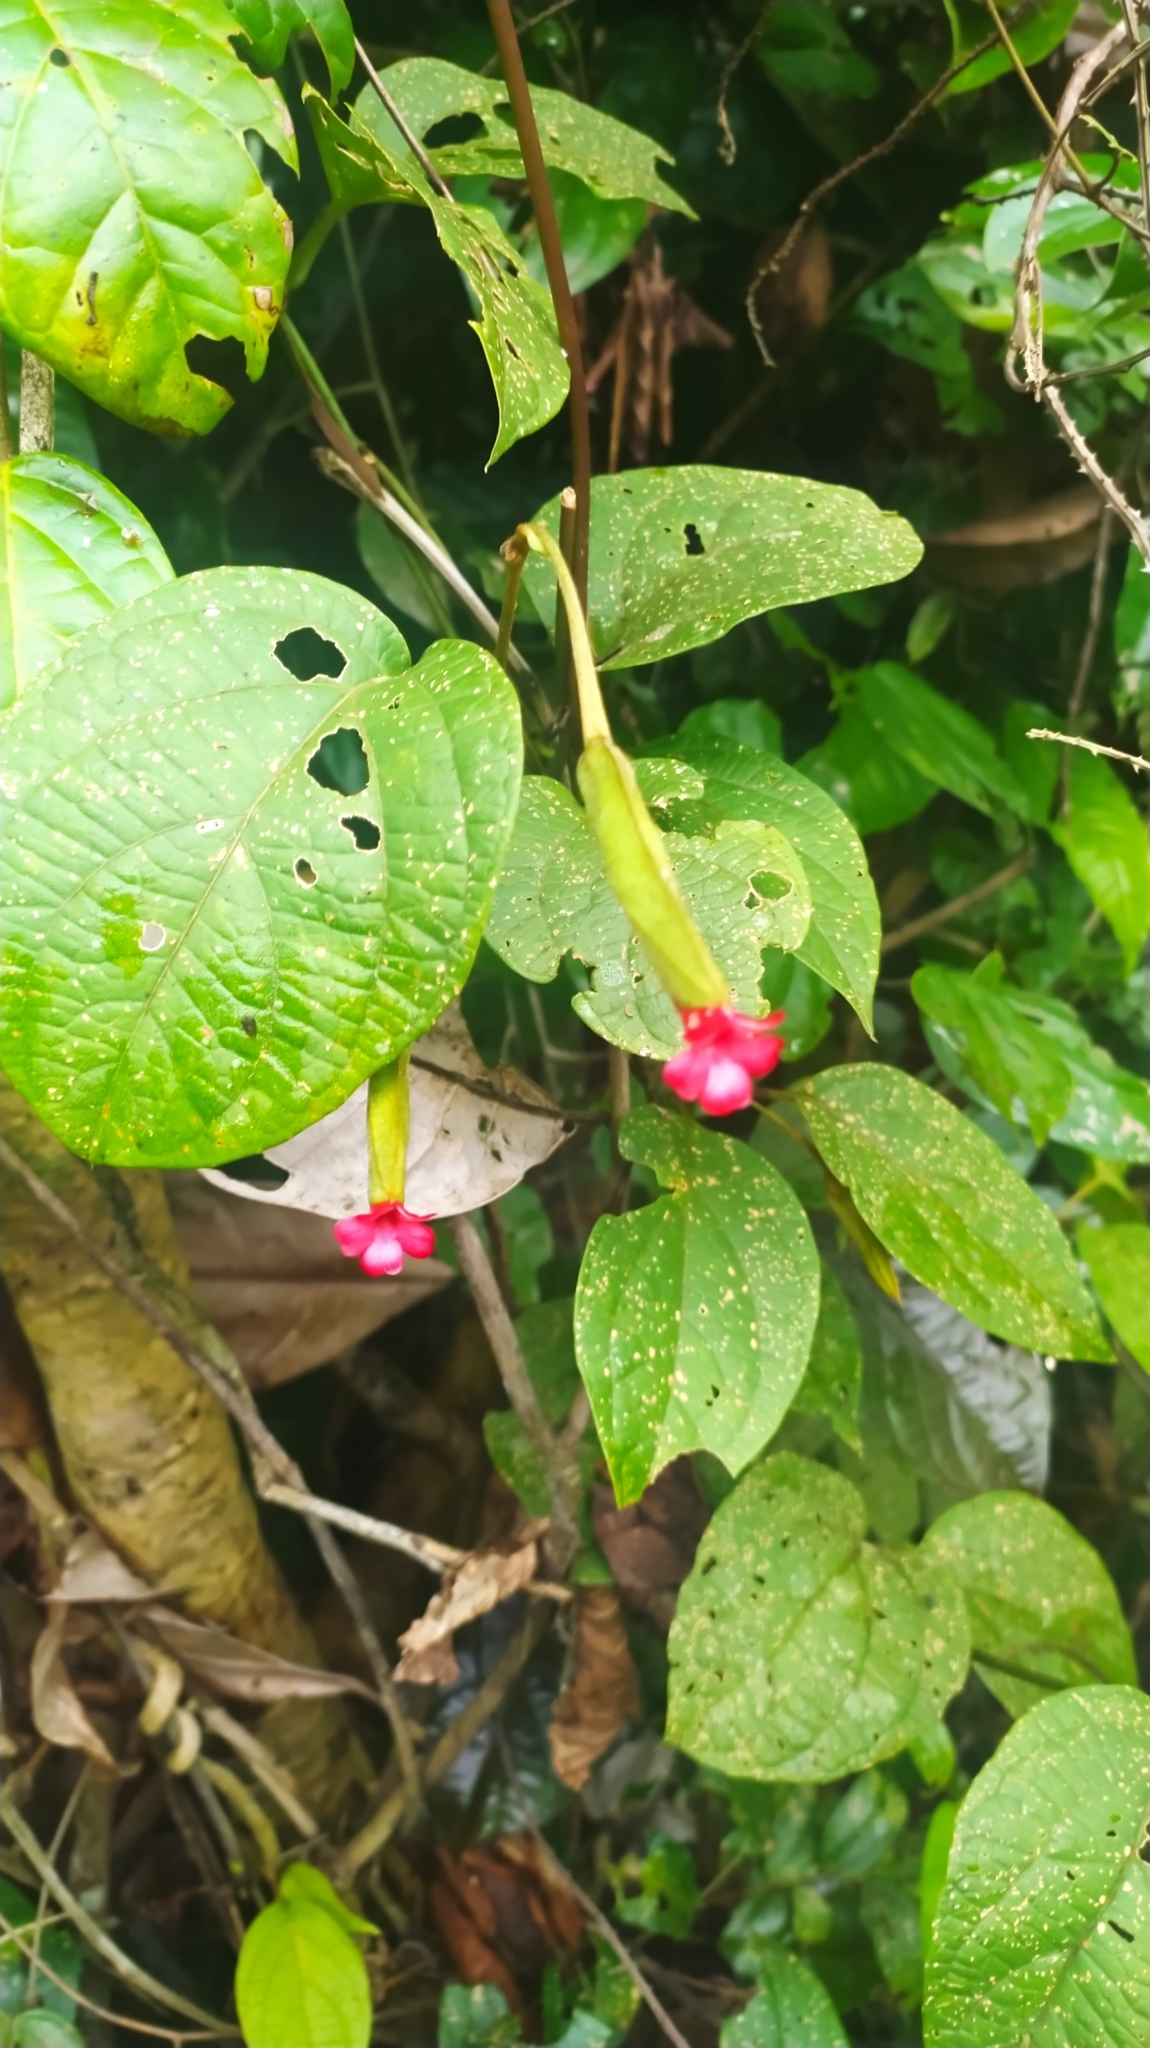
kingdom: Plantae
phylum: Tracheophyta
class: Magnoliopsida
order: Lamiales
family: Acanthaceae
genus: Mendoncia
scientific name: Mendoncia hoffmannseggiana
